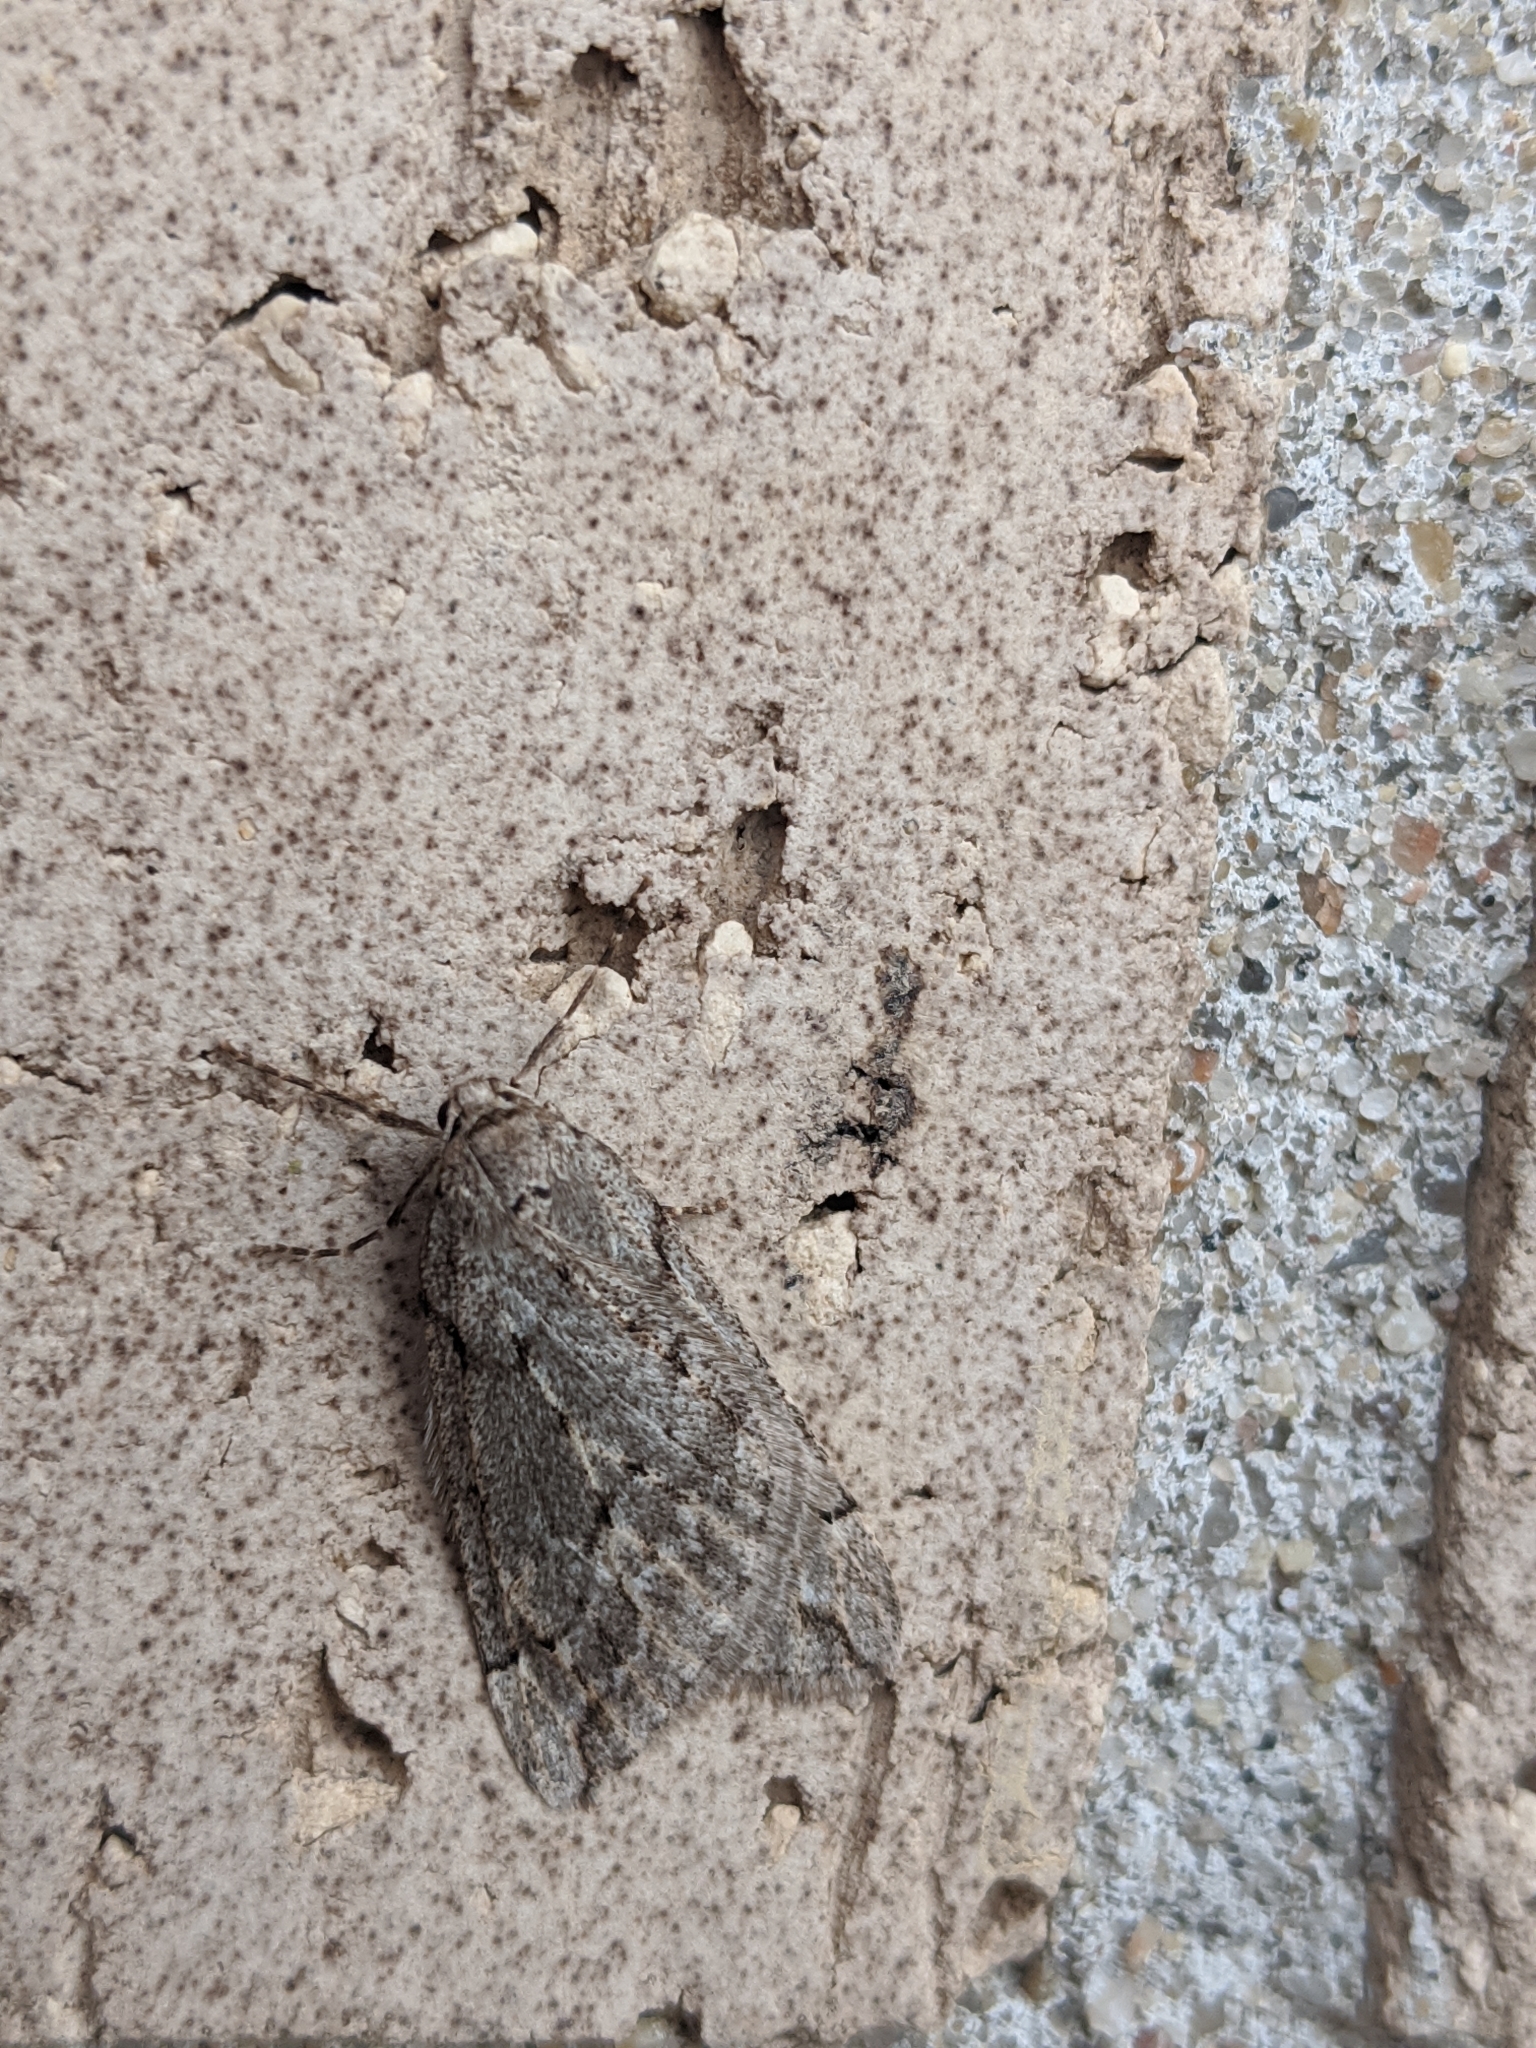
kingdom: Animalia
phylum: Arthropoda
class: Insecta
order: Lepidoptera
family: Geometridae
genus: Paleacrita
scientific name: Paleacrita vernata
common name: Spring cankerworm
